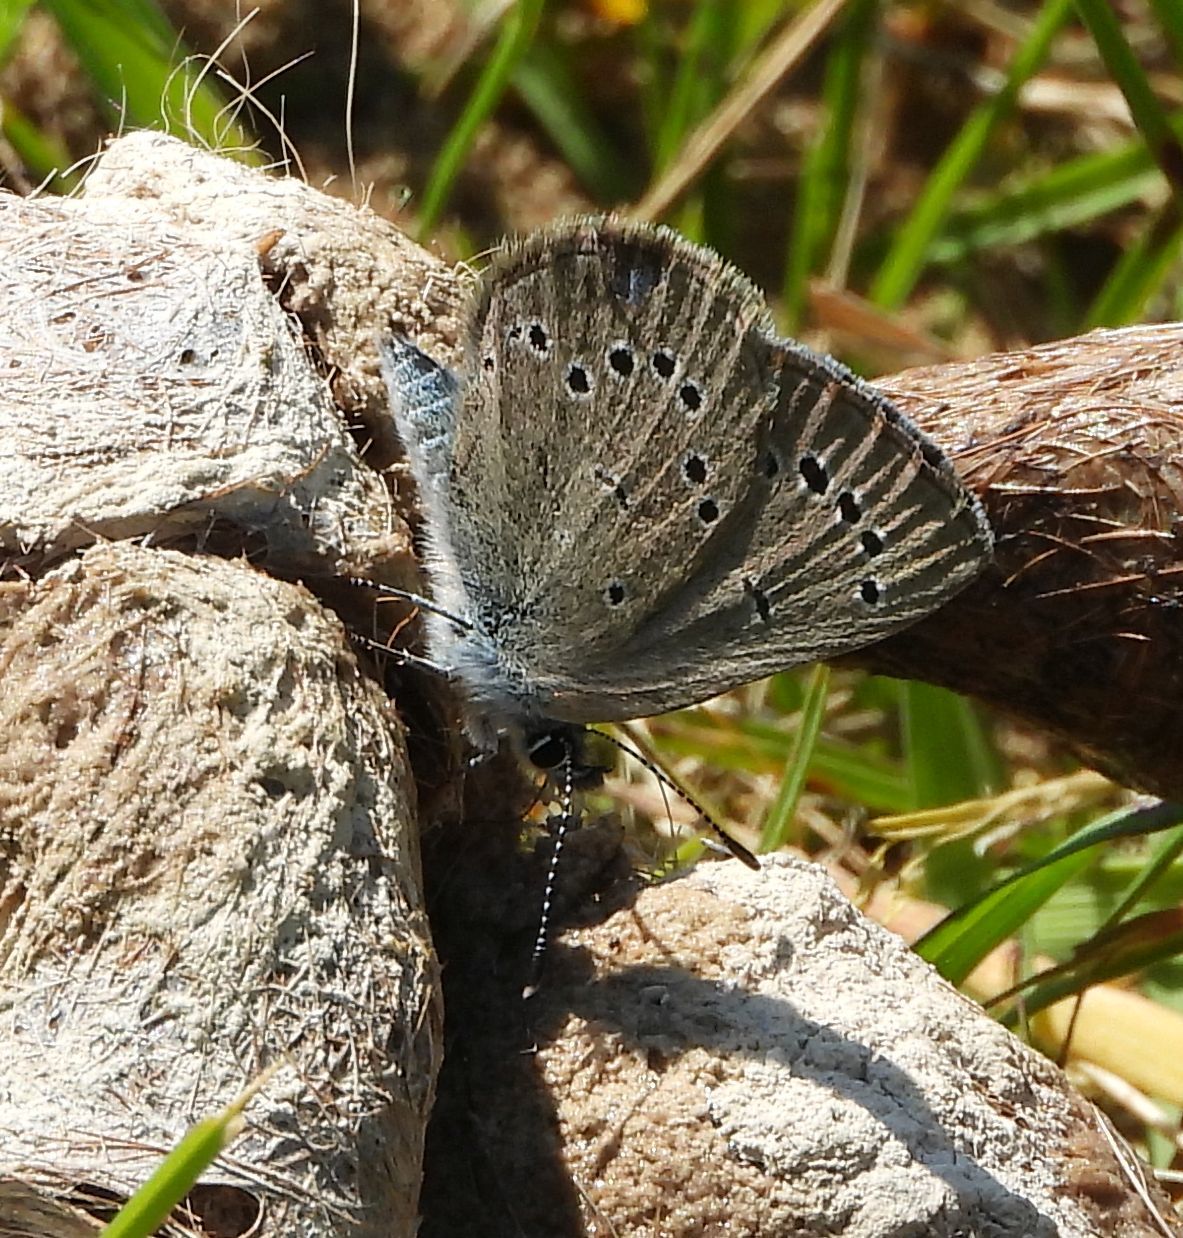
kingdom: Animalia
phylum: Arthropoda
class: Insecta
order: Lepidoptera
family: Lycaenidae
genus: Glaucopsyche
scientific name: Glaucopsyche lygdamus
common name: Silvery blue
